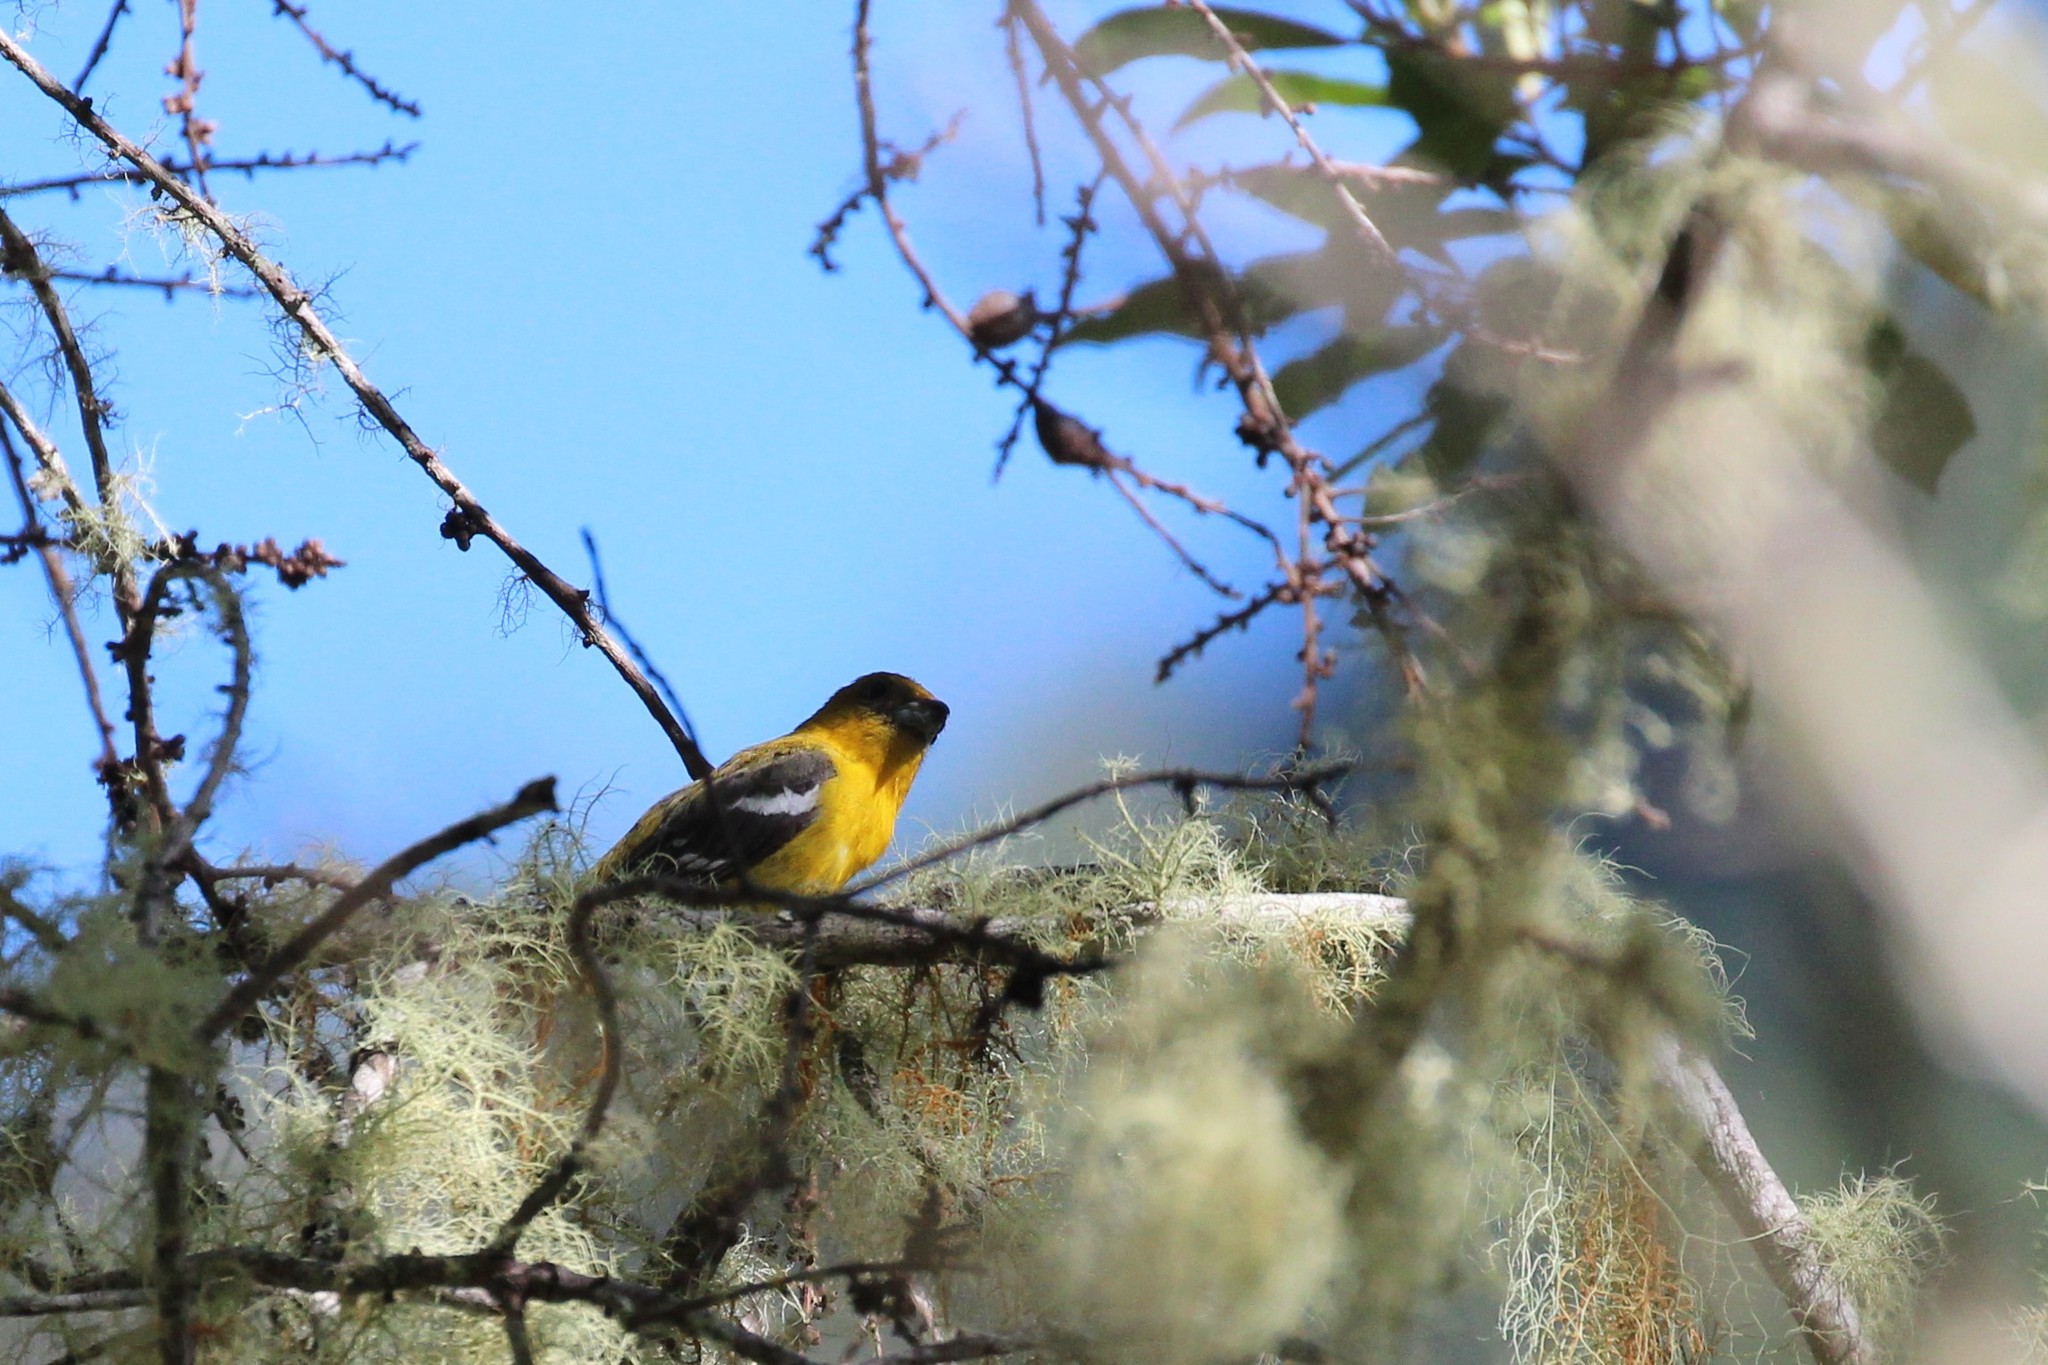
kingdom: Animalia
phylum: Chordata
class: Aves
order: Passeriformes
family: Cardinalidae
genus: Piranga
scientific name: Piranga leucoptera
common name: White-winged tanager
